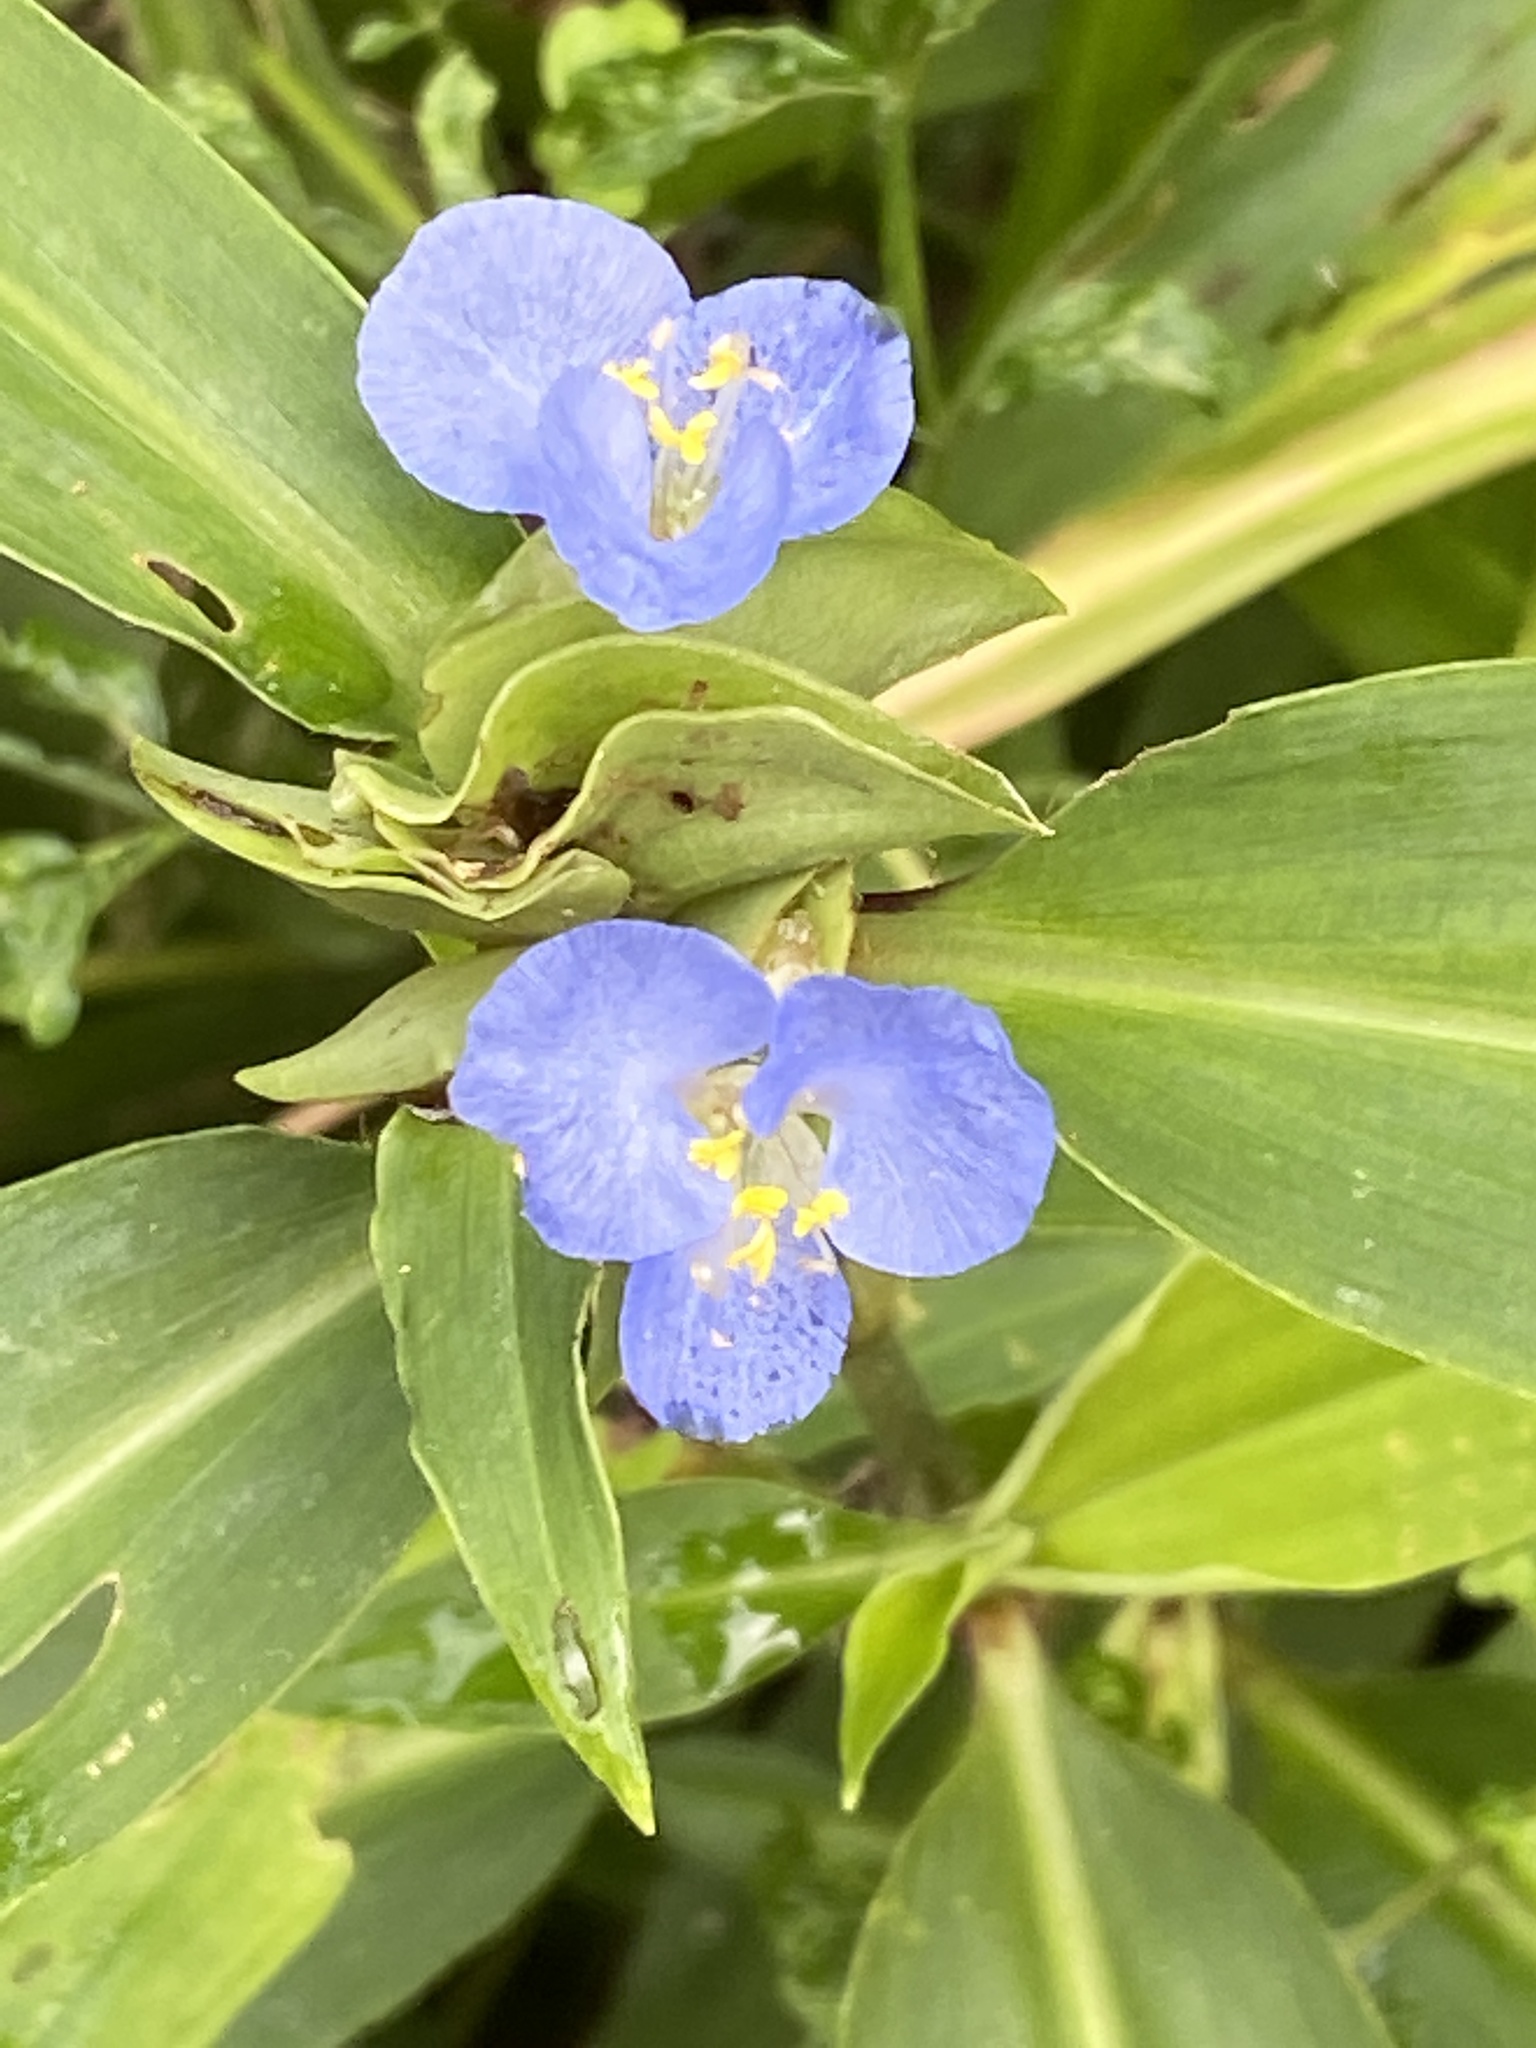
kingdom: Plantae
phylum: Tracheophyta
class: Liliopsida
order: Commelinales
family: Commelinaceae
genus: Commelina
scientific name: Commelina virginica
